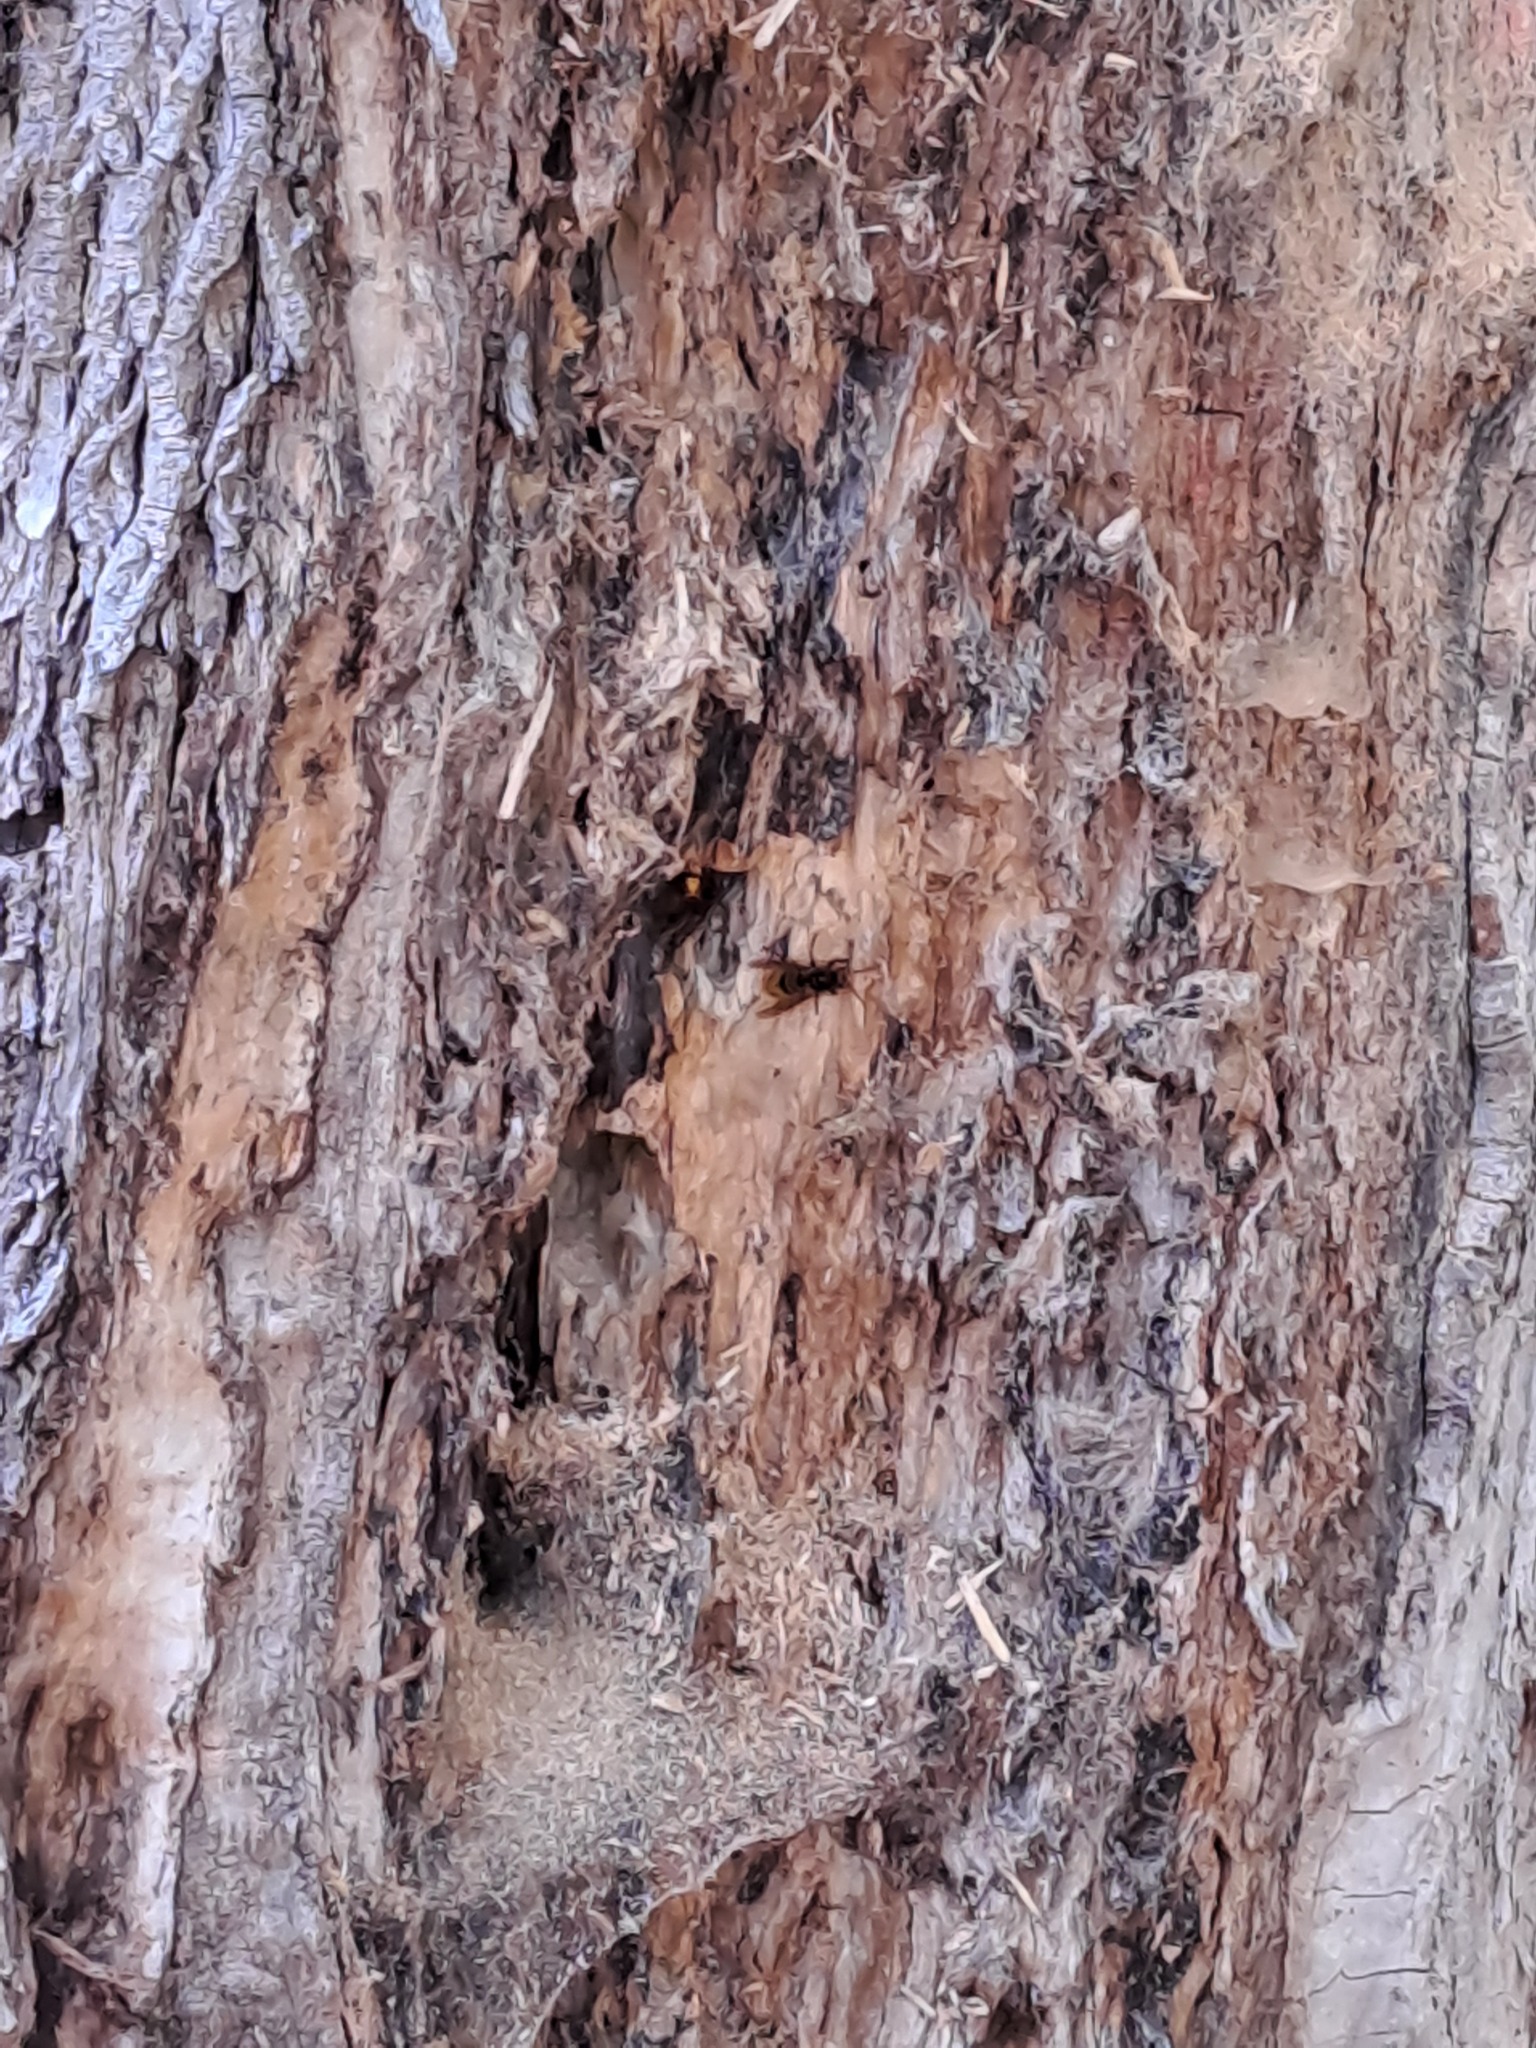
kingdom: Animalia
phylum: Arthropoda
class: Insecta
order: Hymenoptera
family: Vespidae
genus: Vespa
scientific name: Vespa crabro
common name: Hornet
